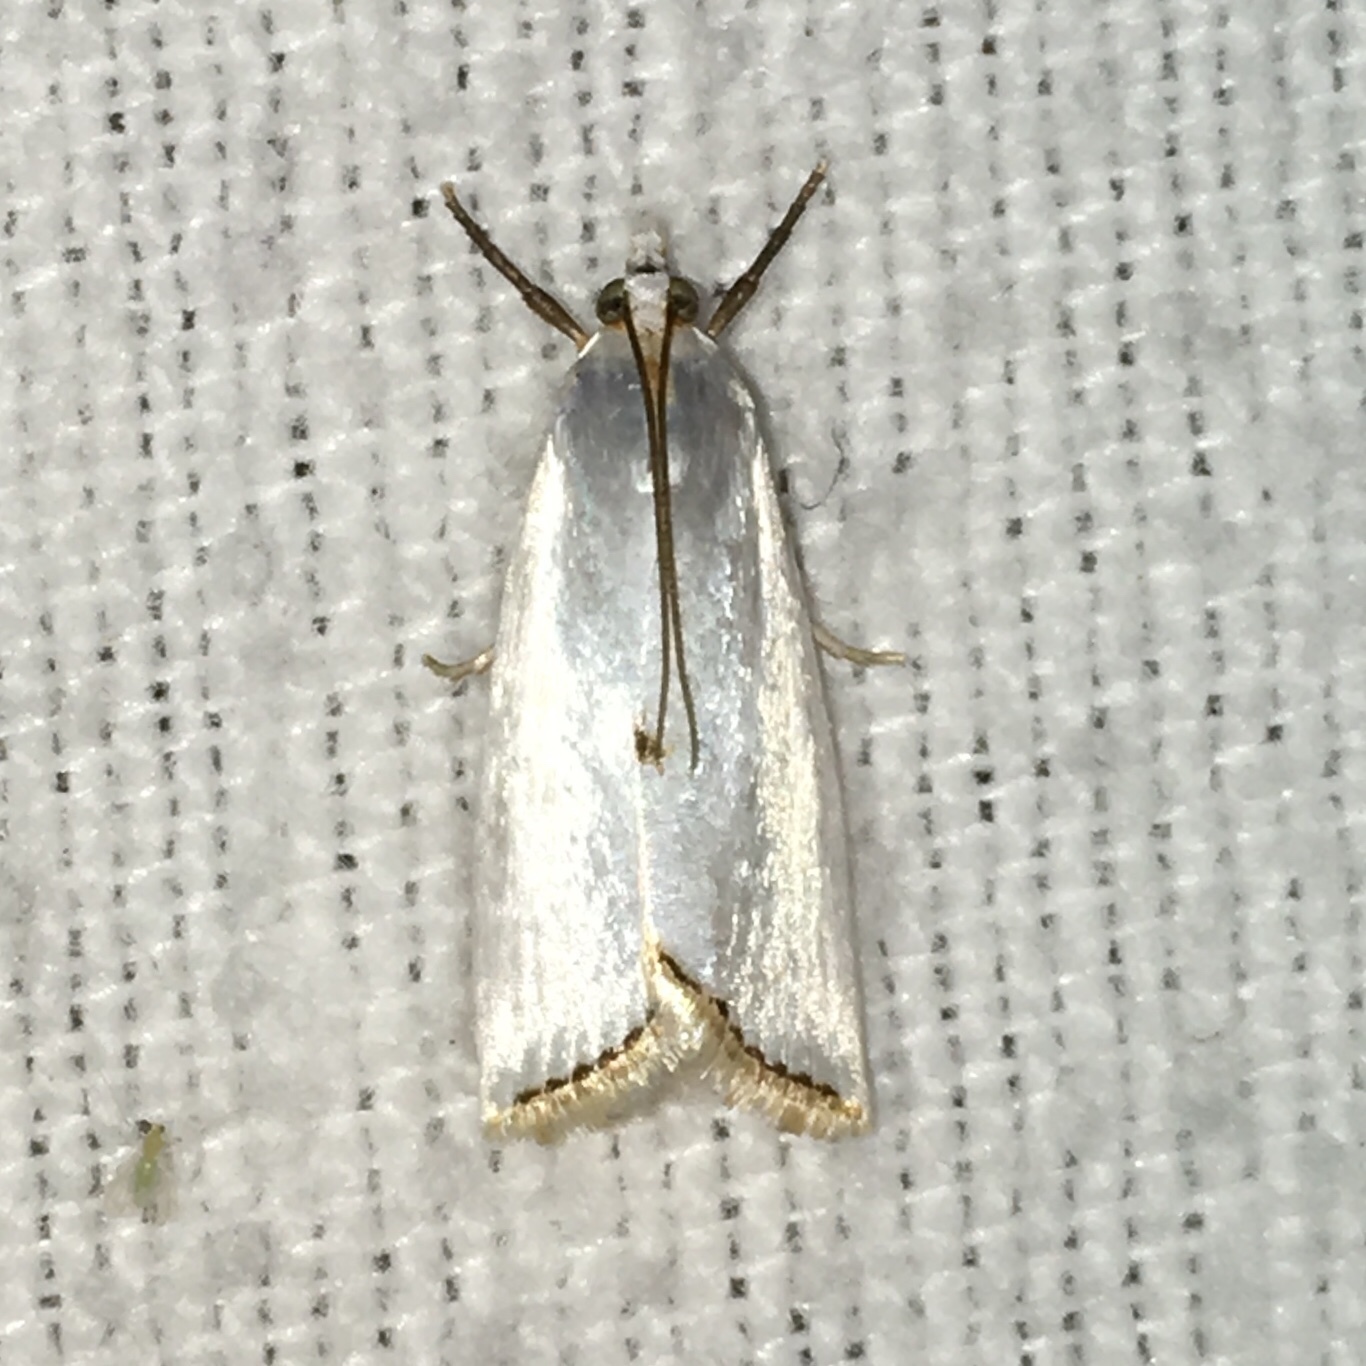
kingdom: Animalia
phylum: Arthropoda
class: Insecta
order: Lepidoptera
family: Crambidae
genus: Argyria
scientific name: Argyria nivalis
